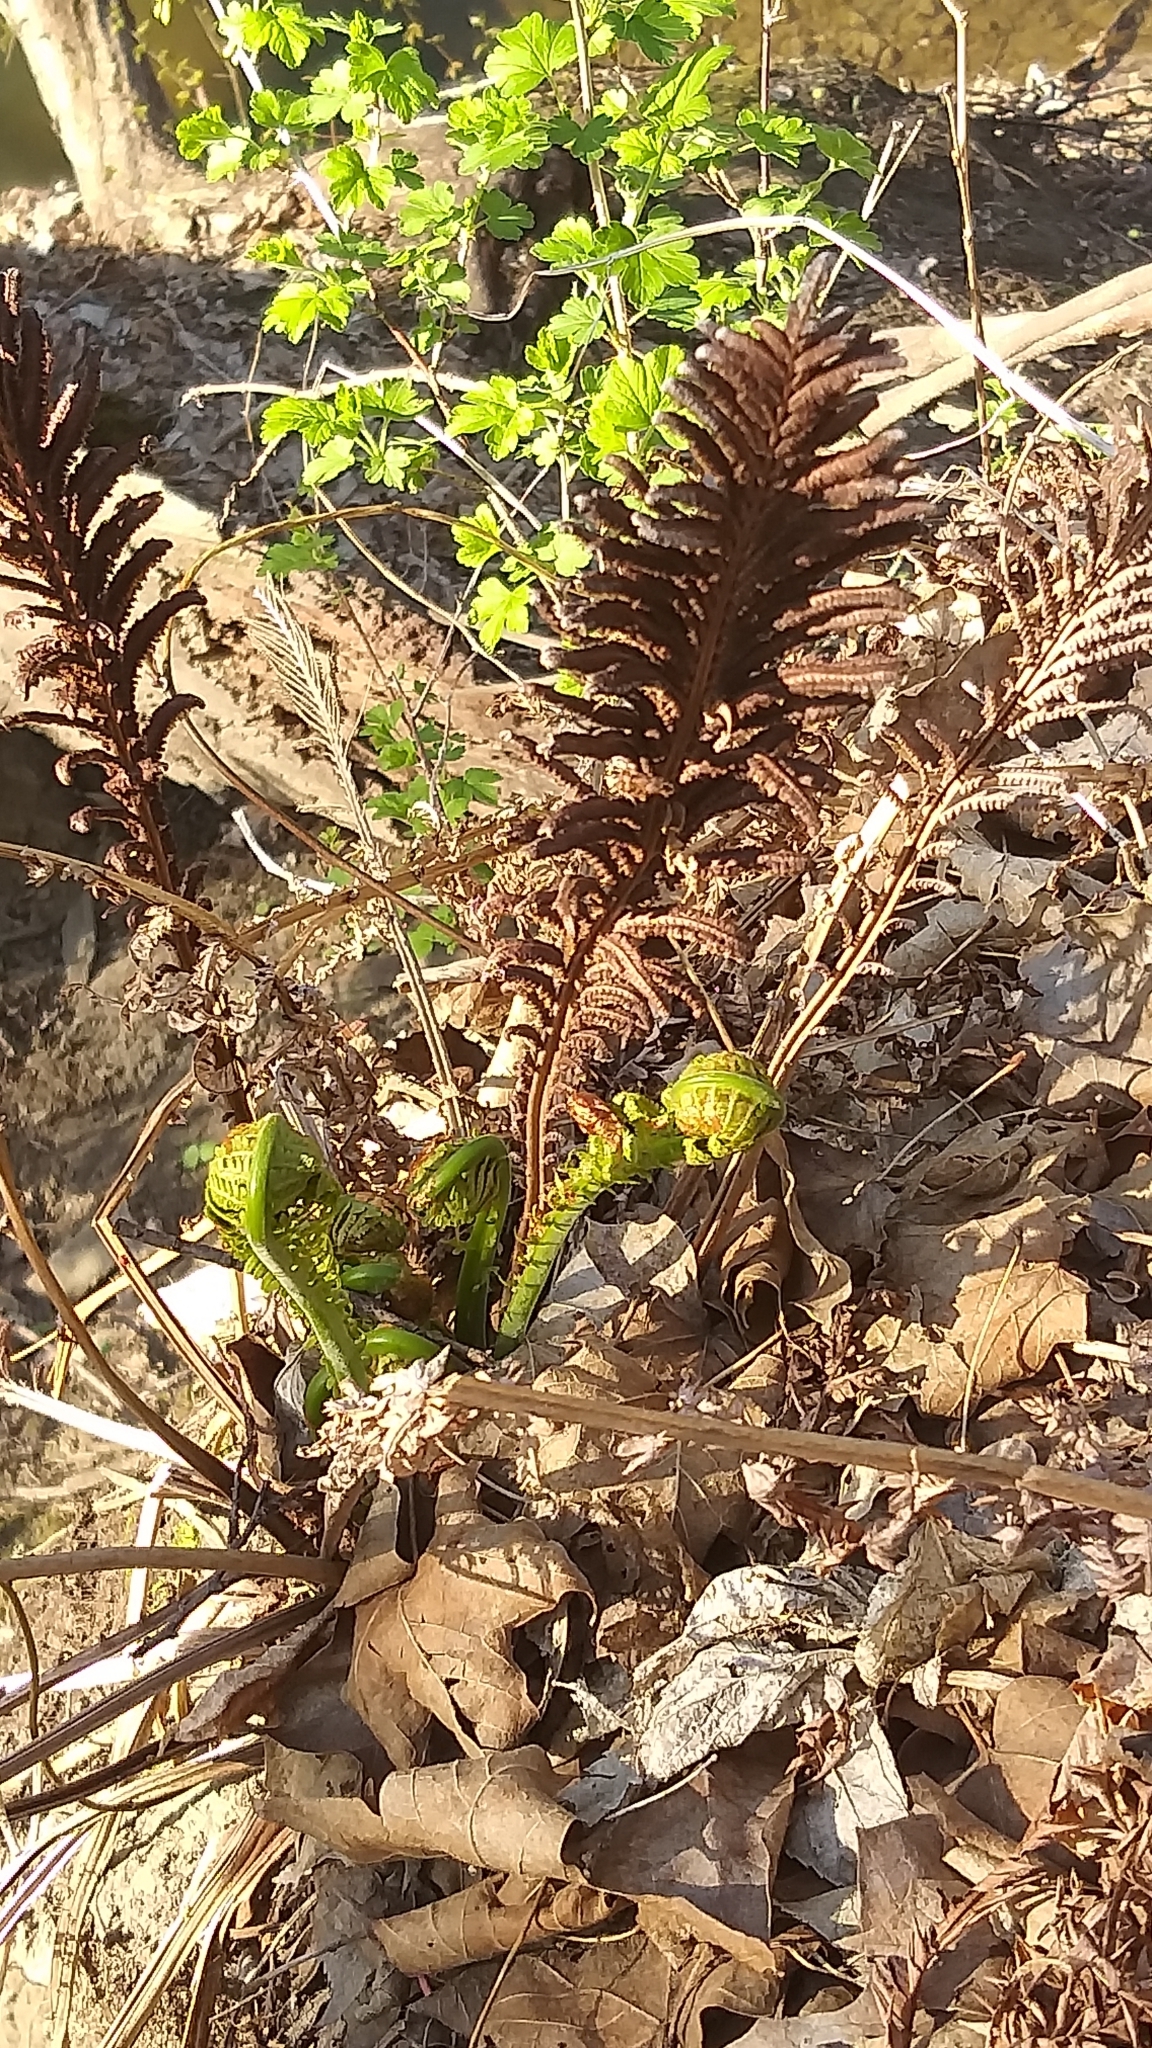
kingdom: Plantae
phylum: Tracheophyta
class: Polypodiopsida
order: Polypodiales
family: Onocleaceae
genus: Matteuccia
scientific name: Matteuccia struthiopteris
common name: Ostrich fern
